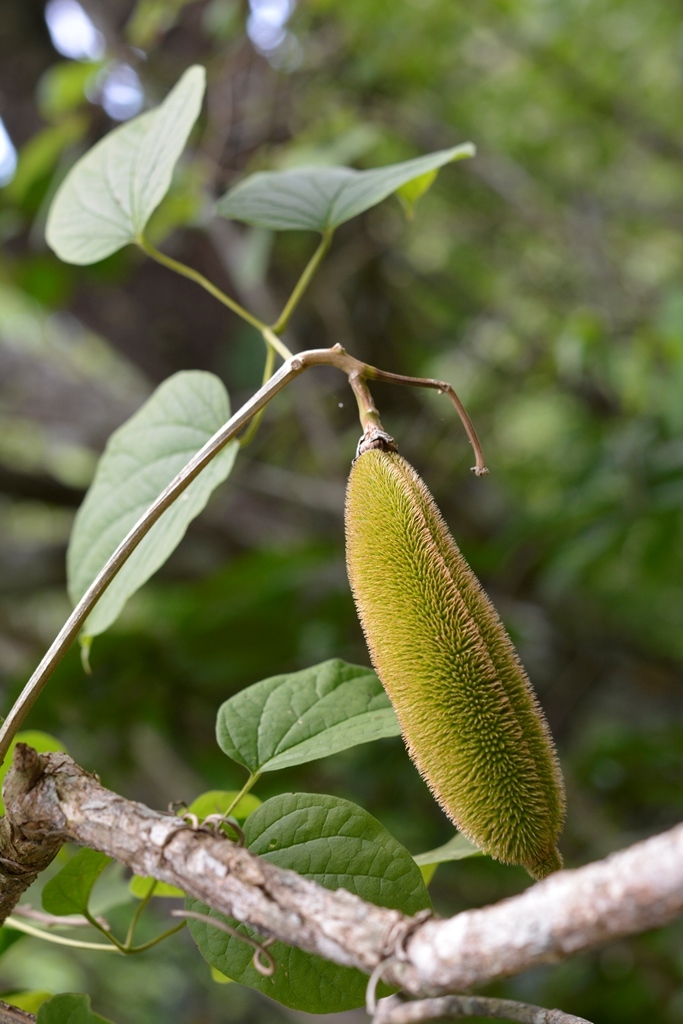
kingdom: Plantae
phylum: Tracheophyta
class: Magnoliopsida
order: Lamiales
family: Bignoniaceae
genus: Amphilophium
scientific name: Amphilophium crucigerum
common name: Monkey comb
